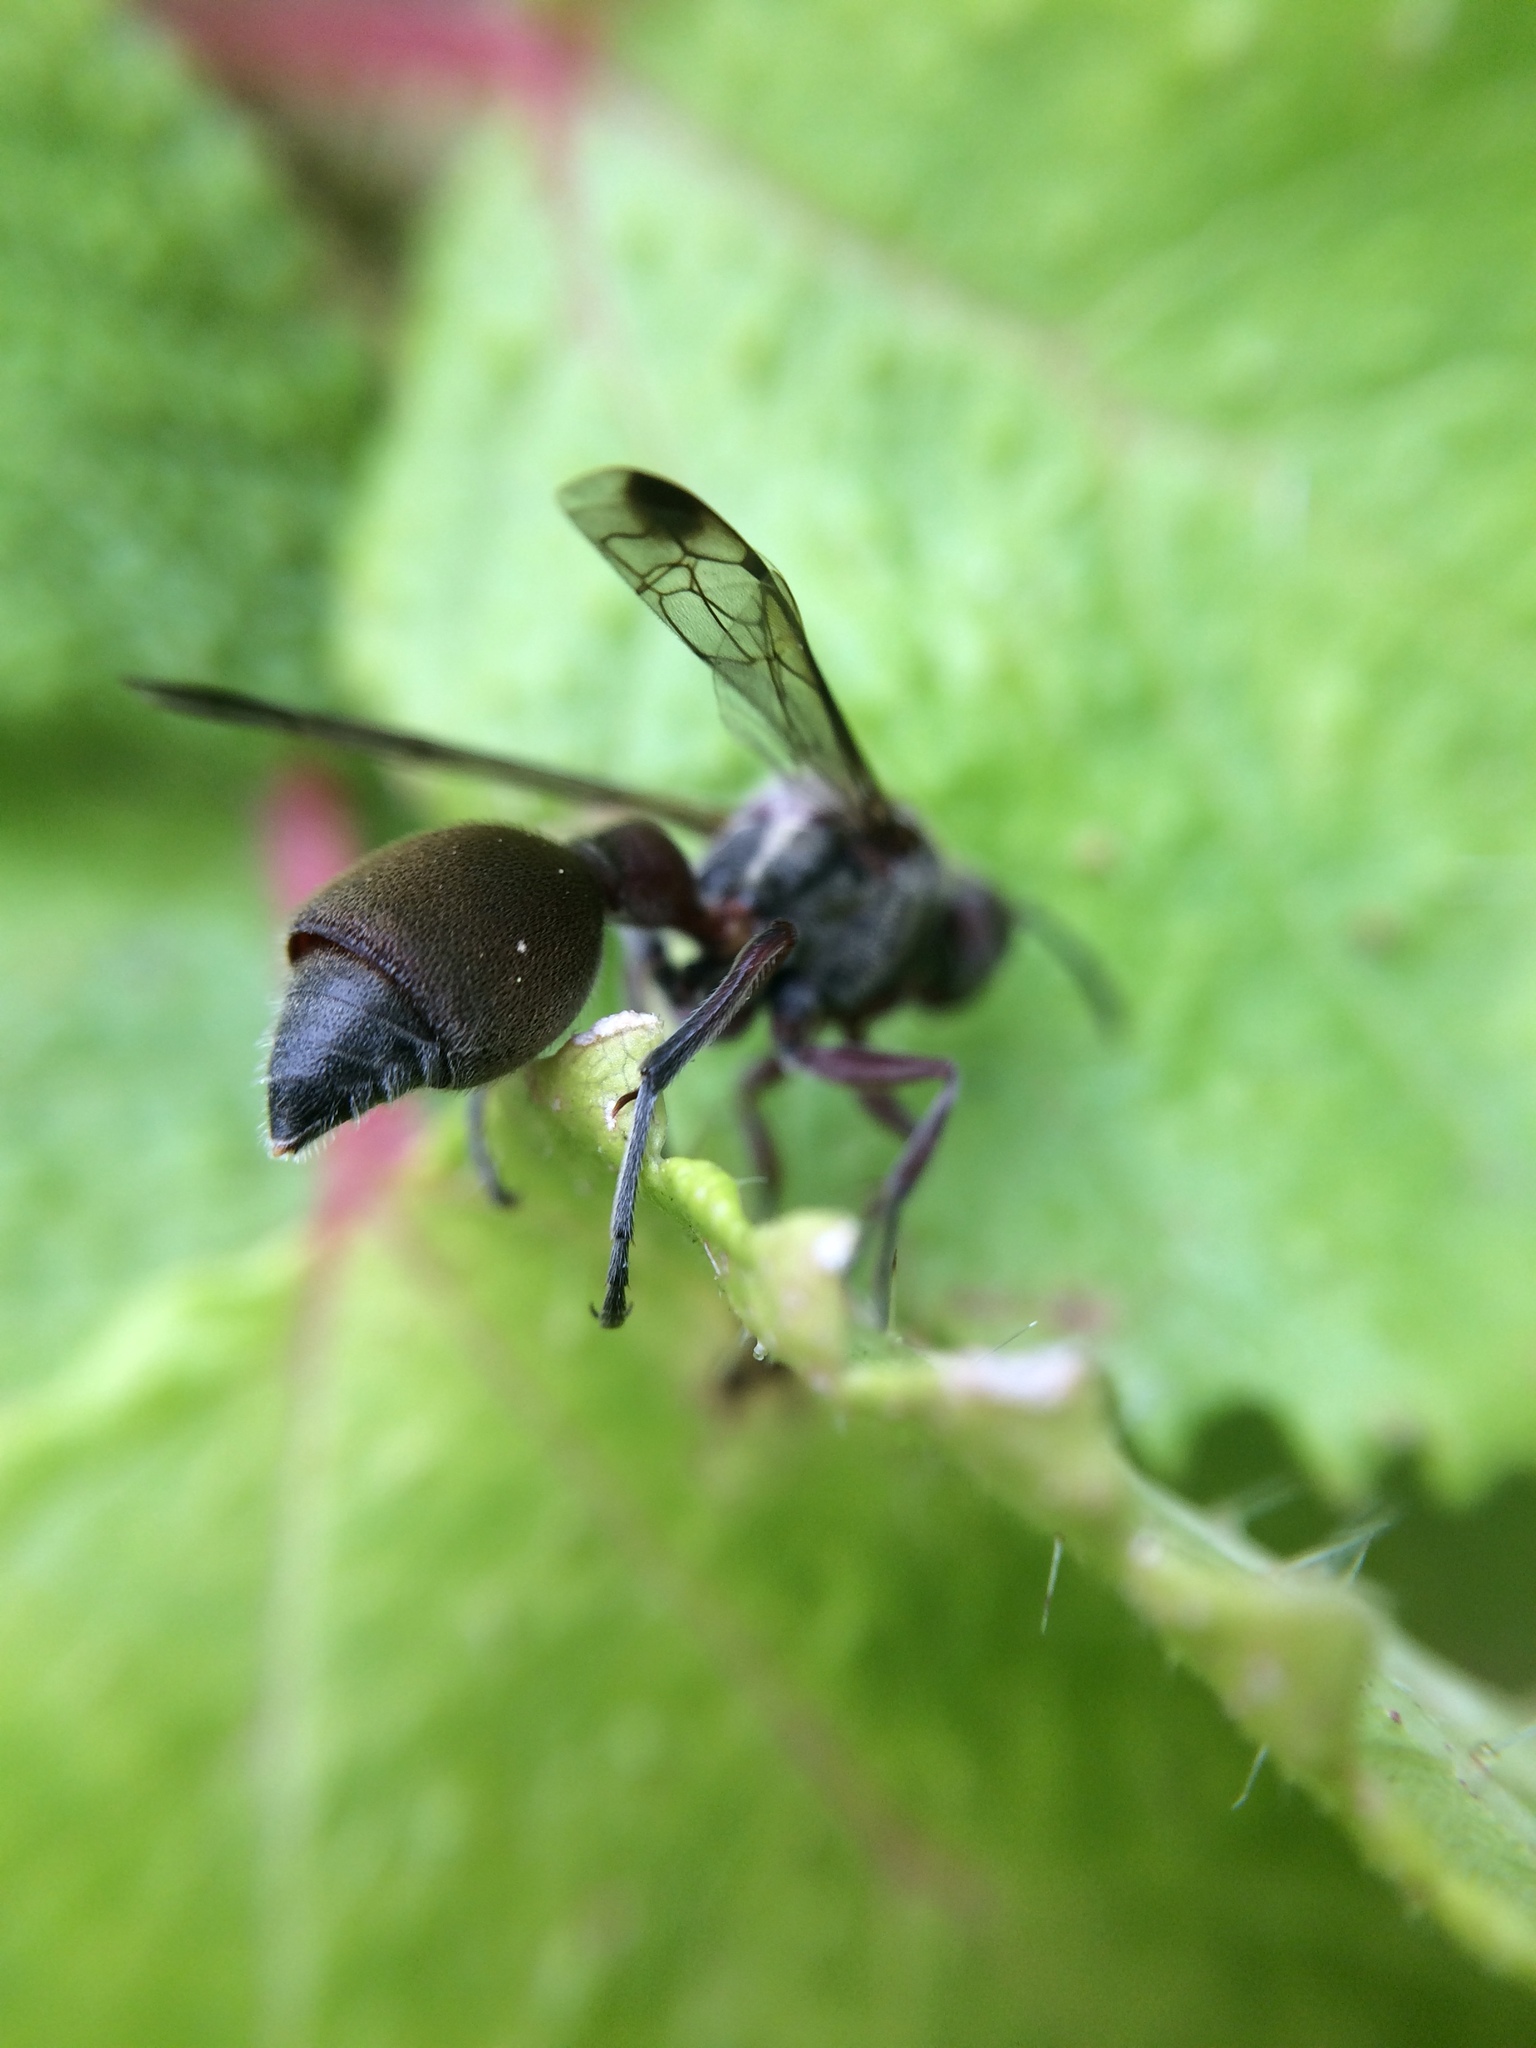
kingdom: Animalia
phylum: Arthropoda
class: Insecta
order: Hymenoptera
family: Vespidae
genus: Ropalidia
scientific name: Ropalidia tomentosa
